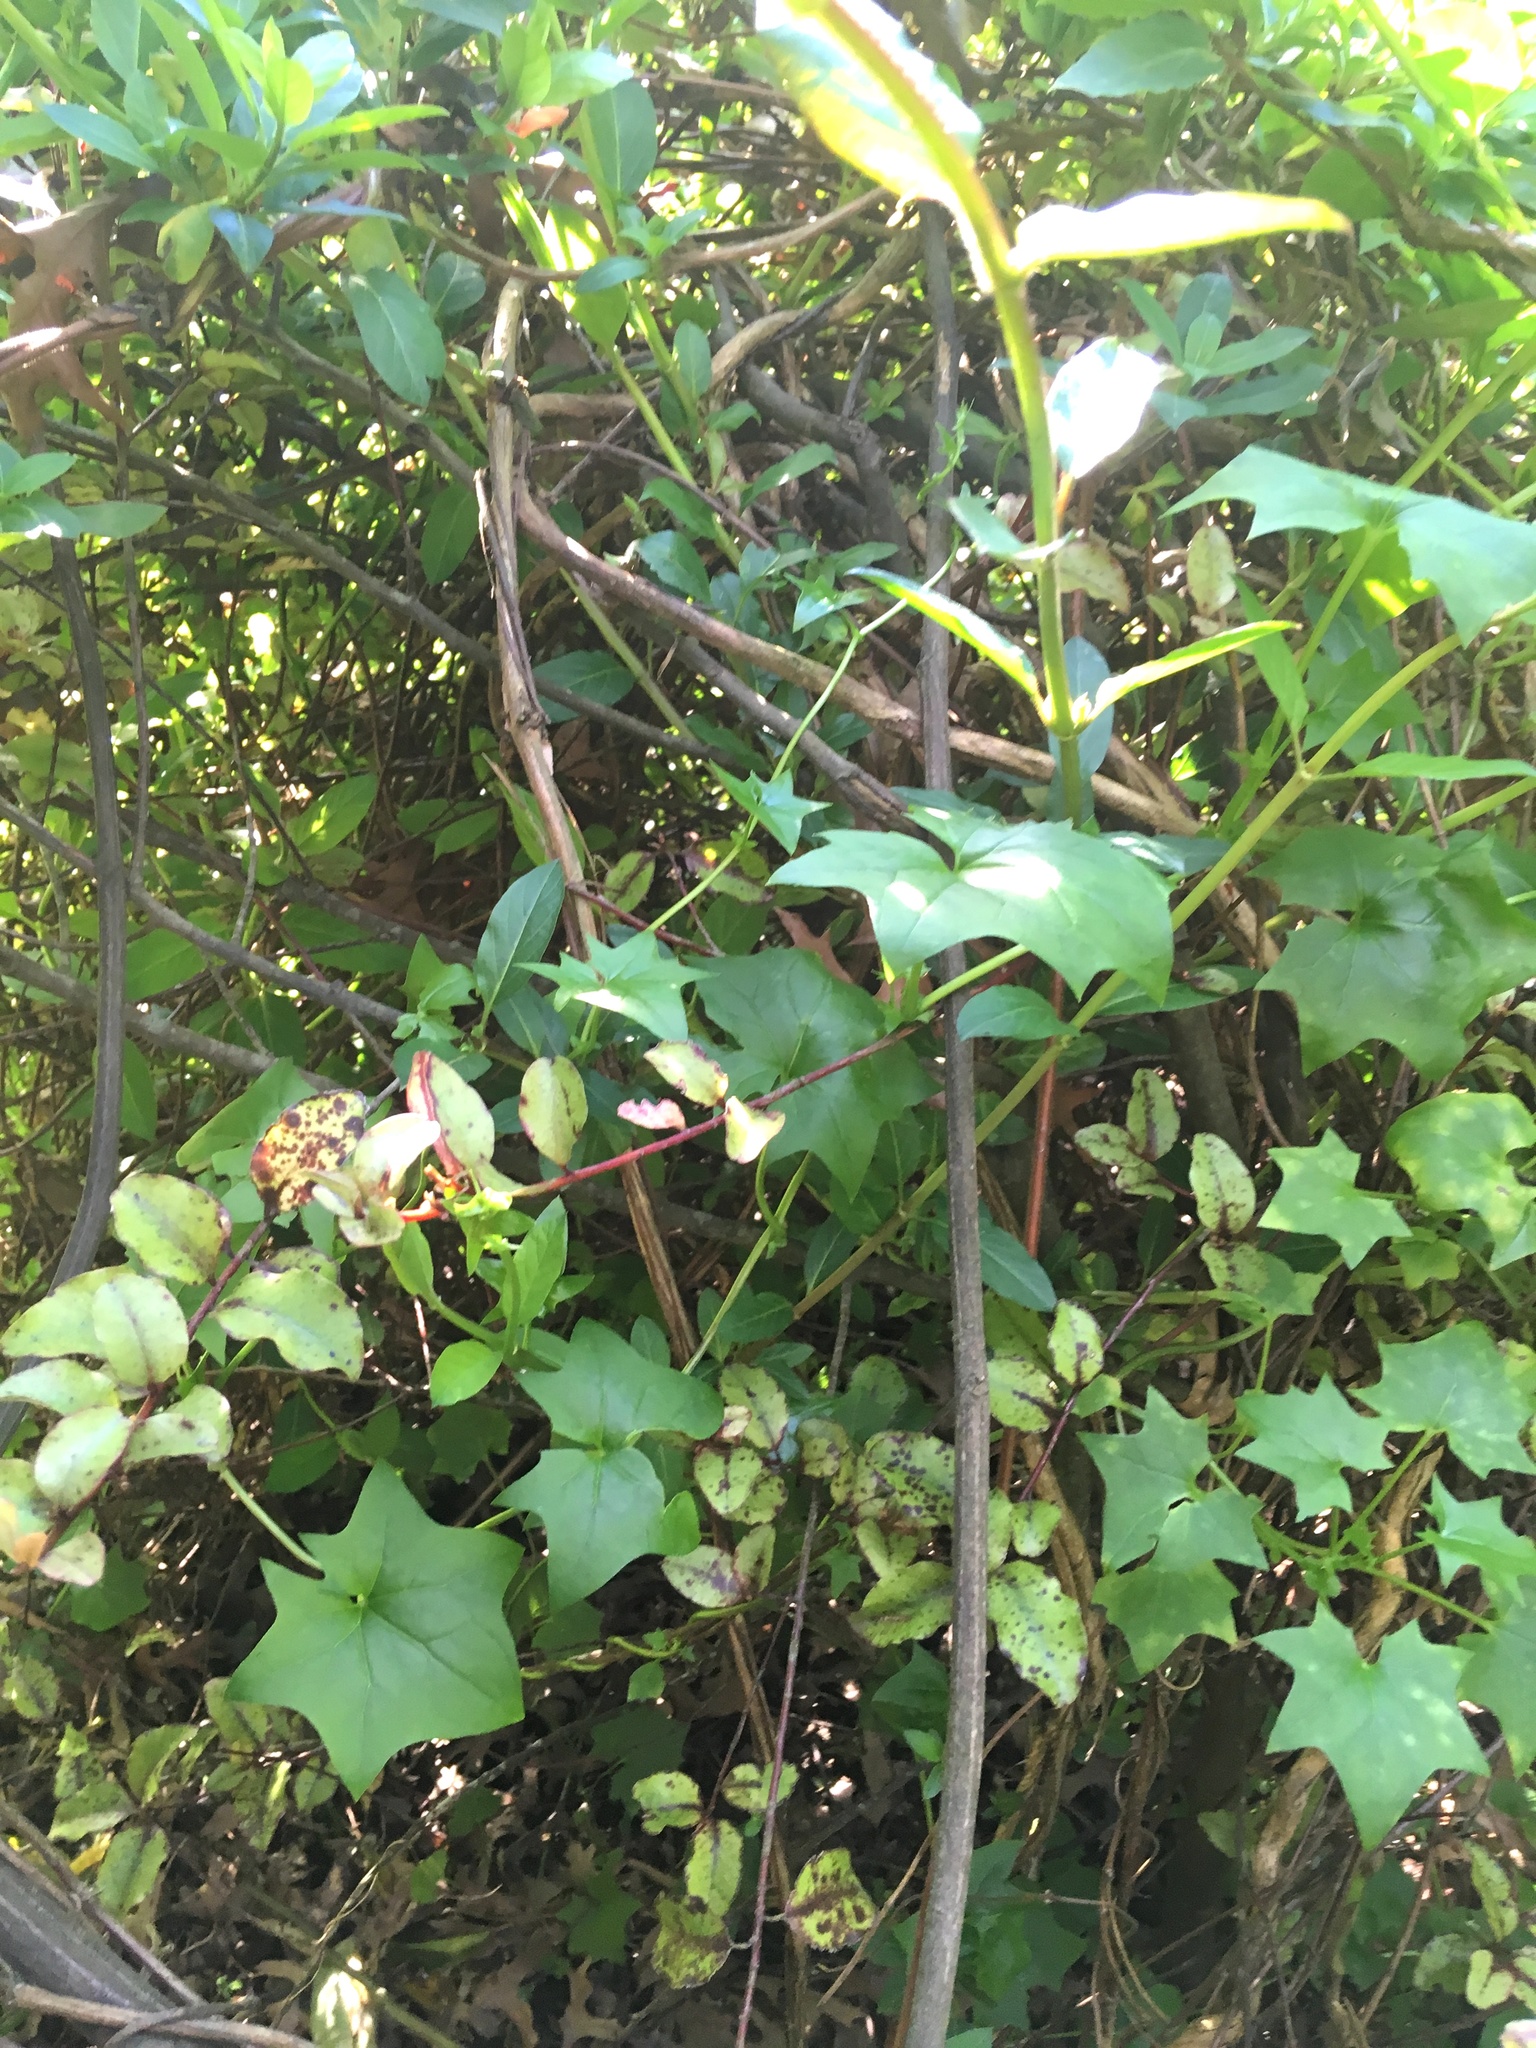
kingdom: Plantae
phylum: Tracheophyta
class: Magnoliopsida
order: Asterales
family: Asteraceae
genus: Delairea
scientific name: Delairea odorata
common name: Cape-ivy
